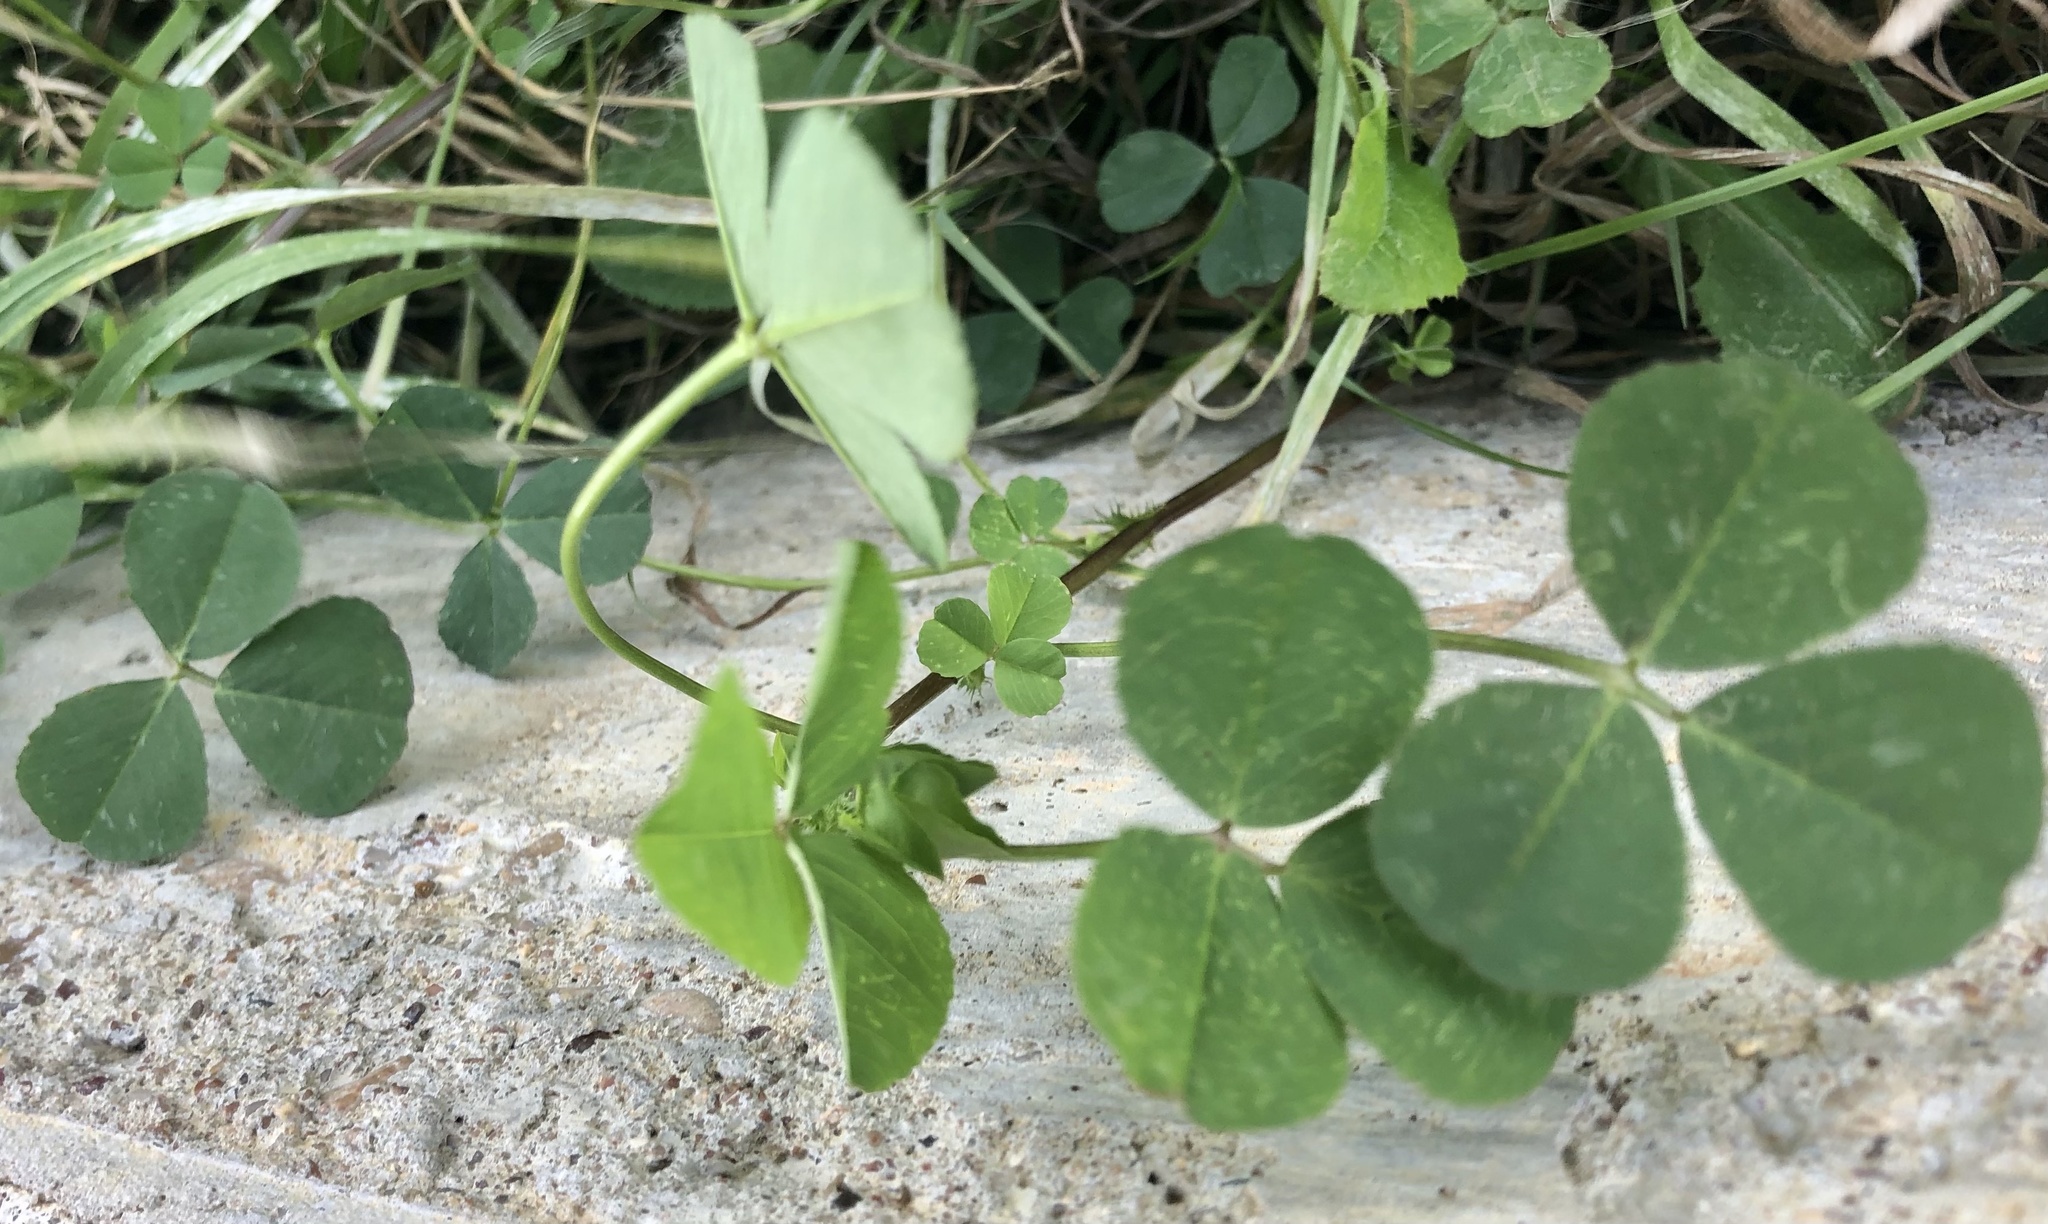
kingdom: Plantae
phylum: Tracheophyta
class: Magnoliopsida
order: Fabales
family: Fabaceae
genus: Medicago
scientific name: Medicago polymorpha
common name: Burclover
